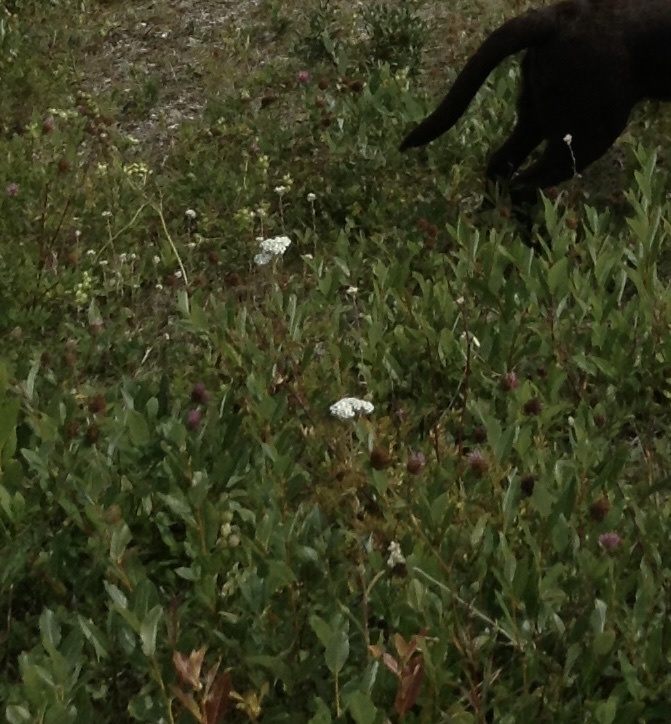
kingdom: Plantae
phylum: Tracheophyta
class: Magnoliopsida
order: Asterales
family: Asteraceae
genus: Achillea
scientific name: Achillea millefolium
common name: Yarrow
